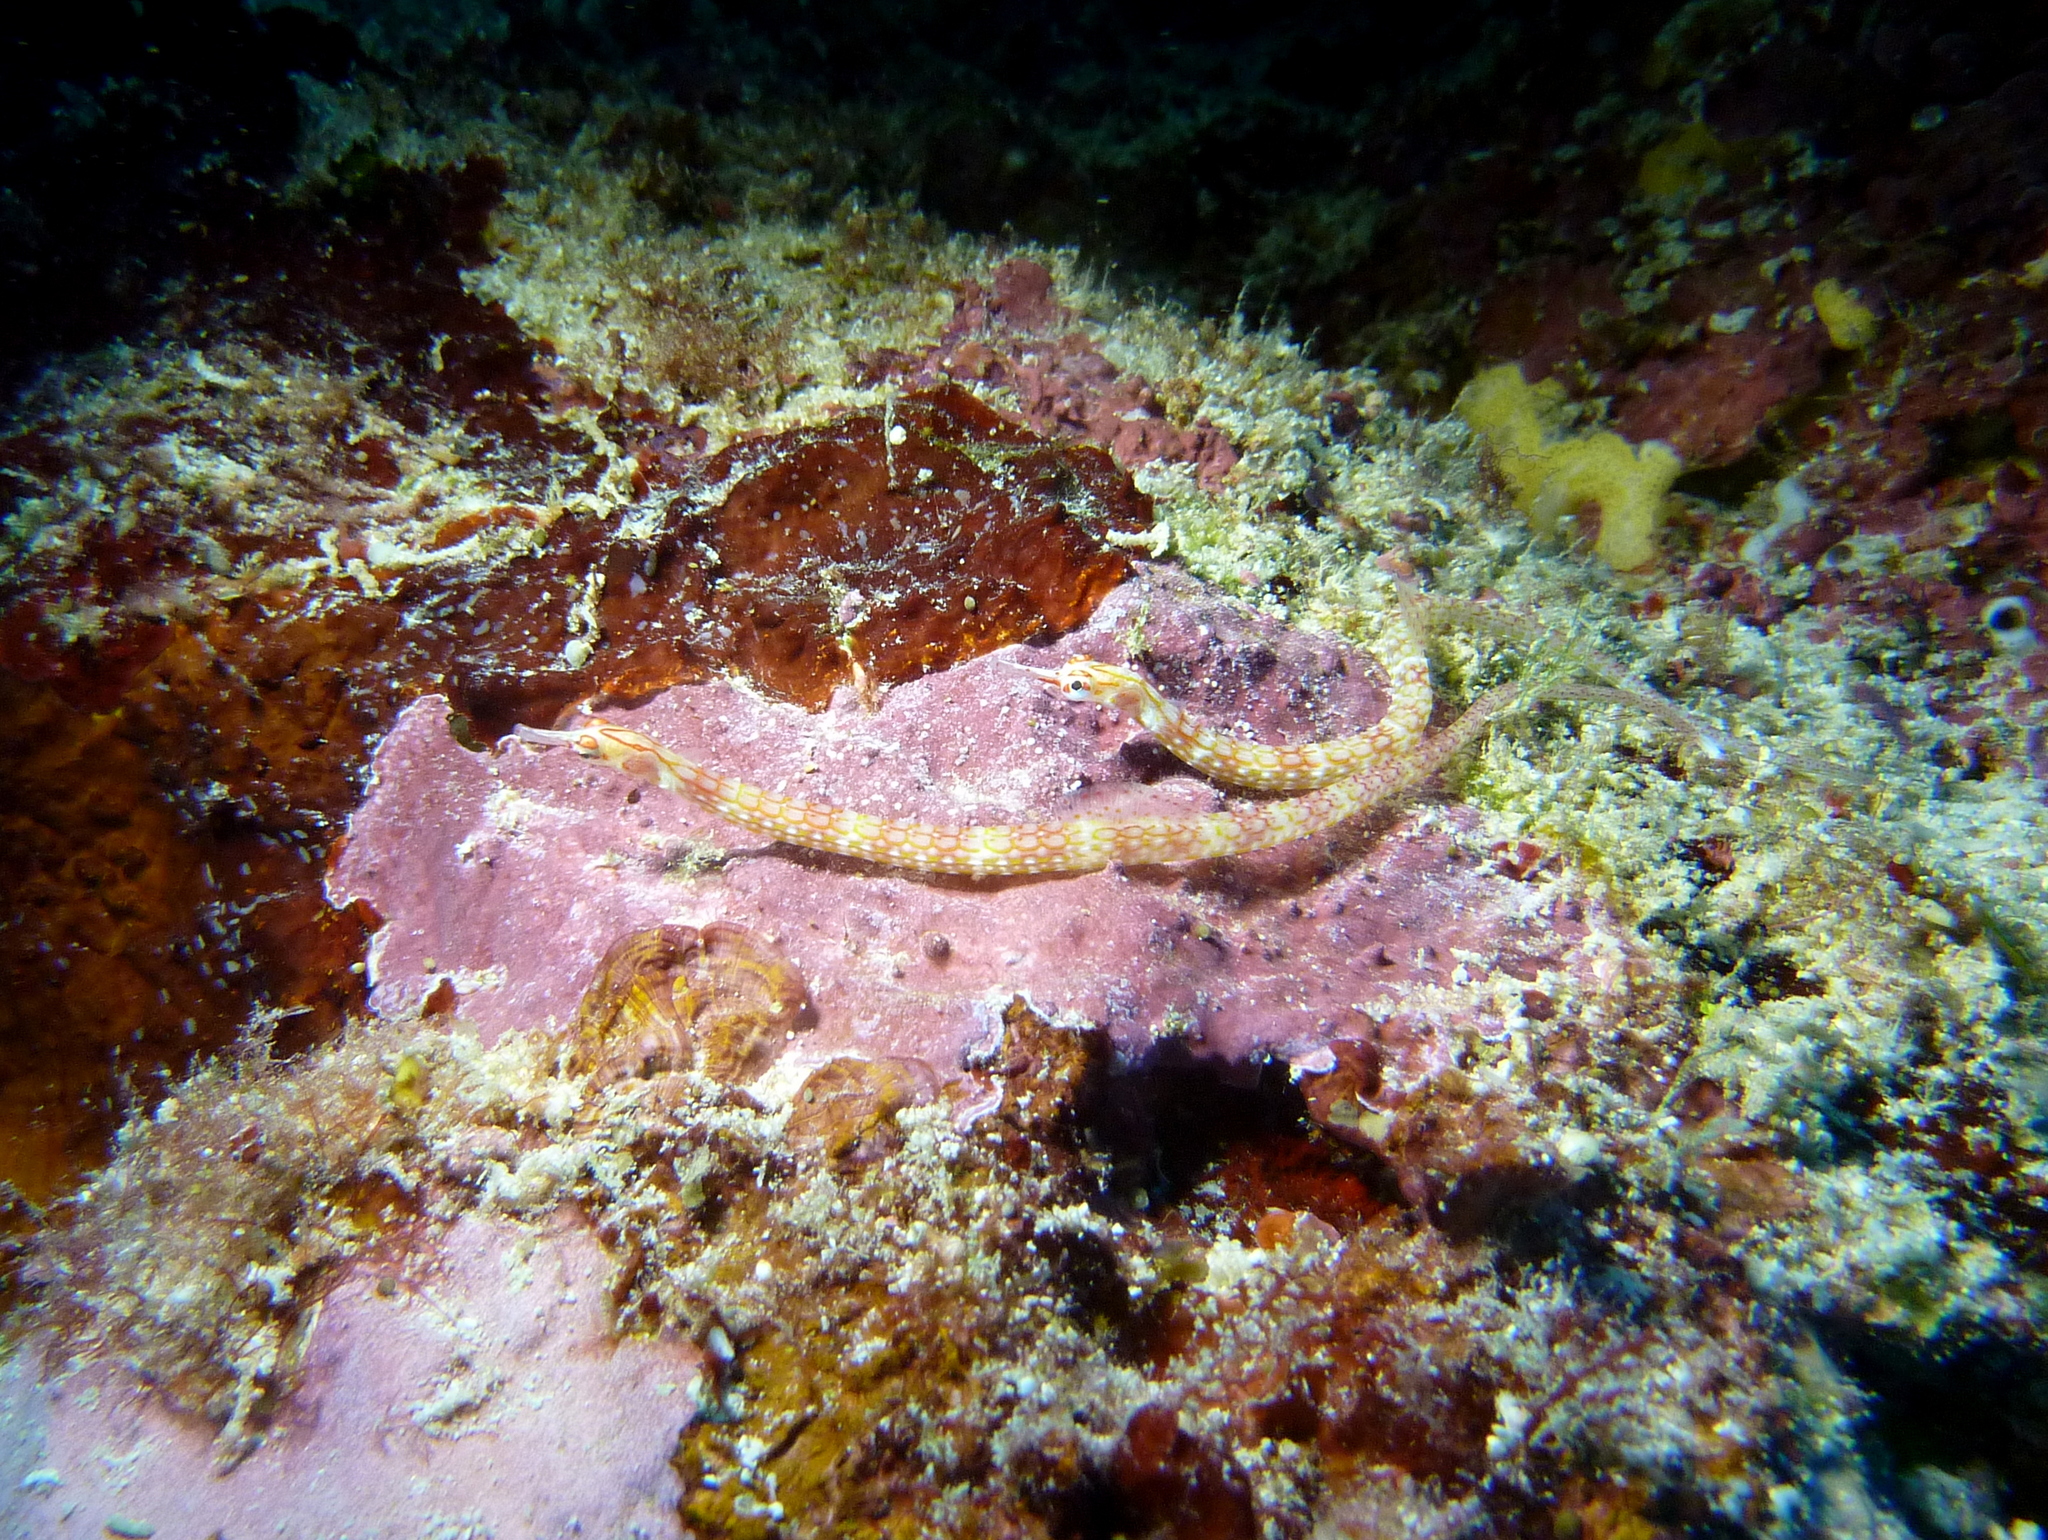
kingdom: Animalia
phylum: Chordata
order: Syngnathiformes
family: Syngnathidae
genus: Corythoichthys
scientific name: Corythoichthys nigripectus
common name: Black-breasted pipefish
